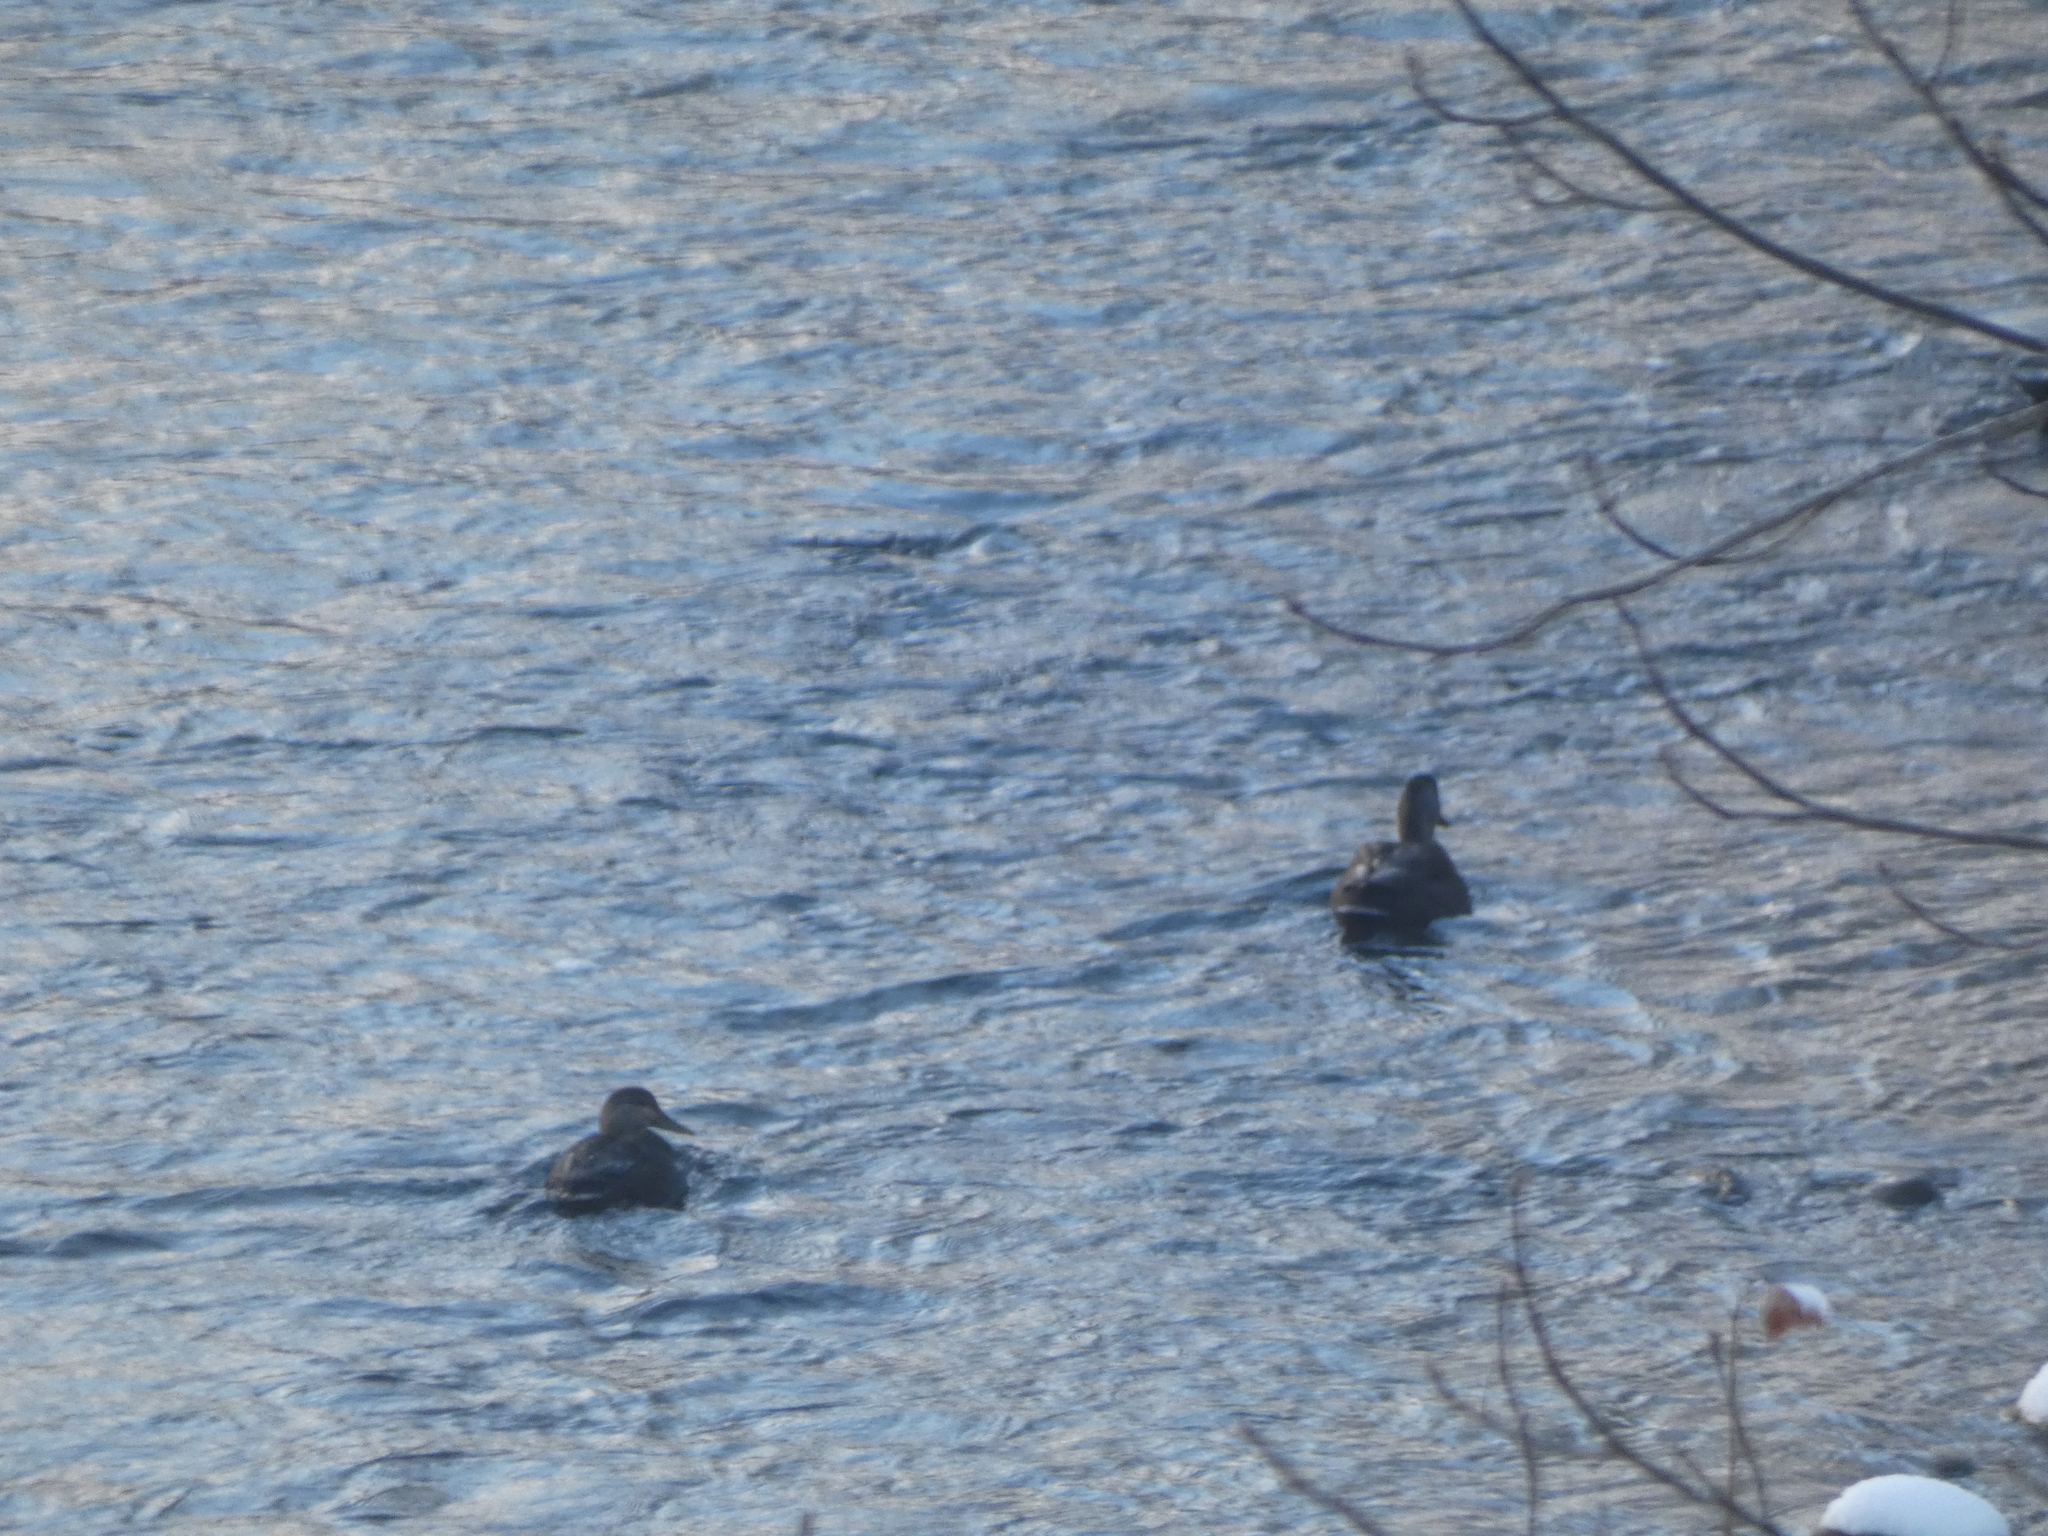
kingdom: Animalia
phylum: Chordata
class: Aves
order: Anseriformes
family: Anatidae
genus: Anas
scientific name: Anas rubripes
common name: American black duck
